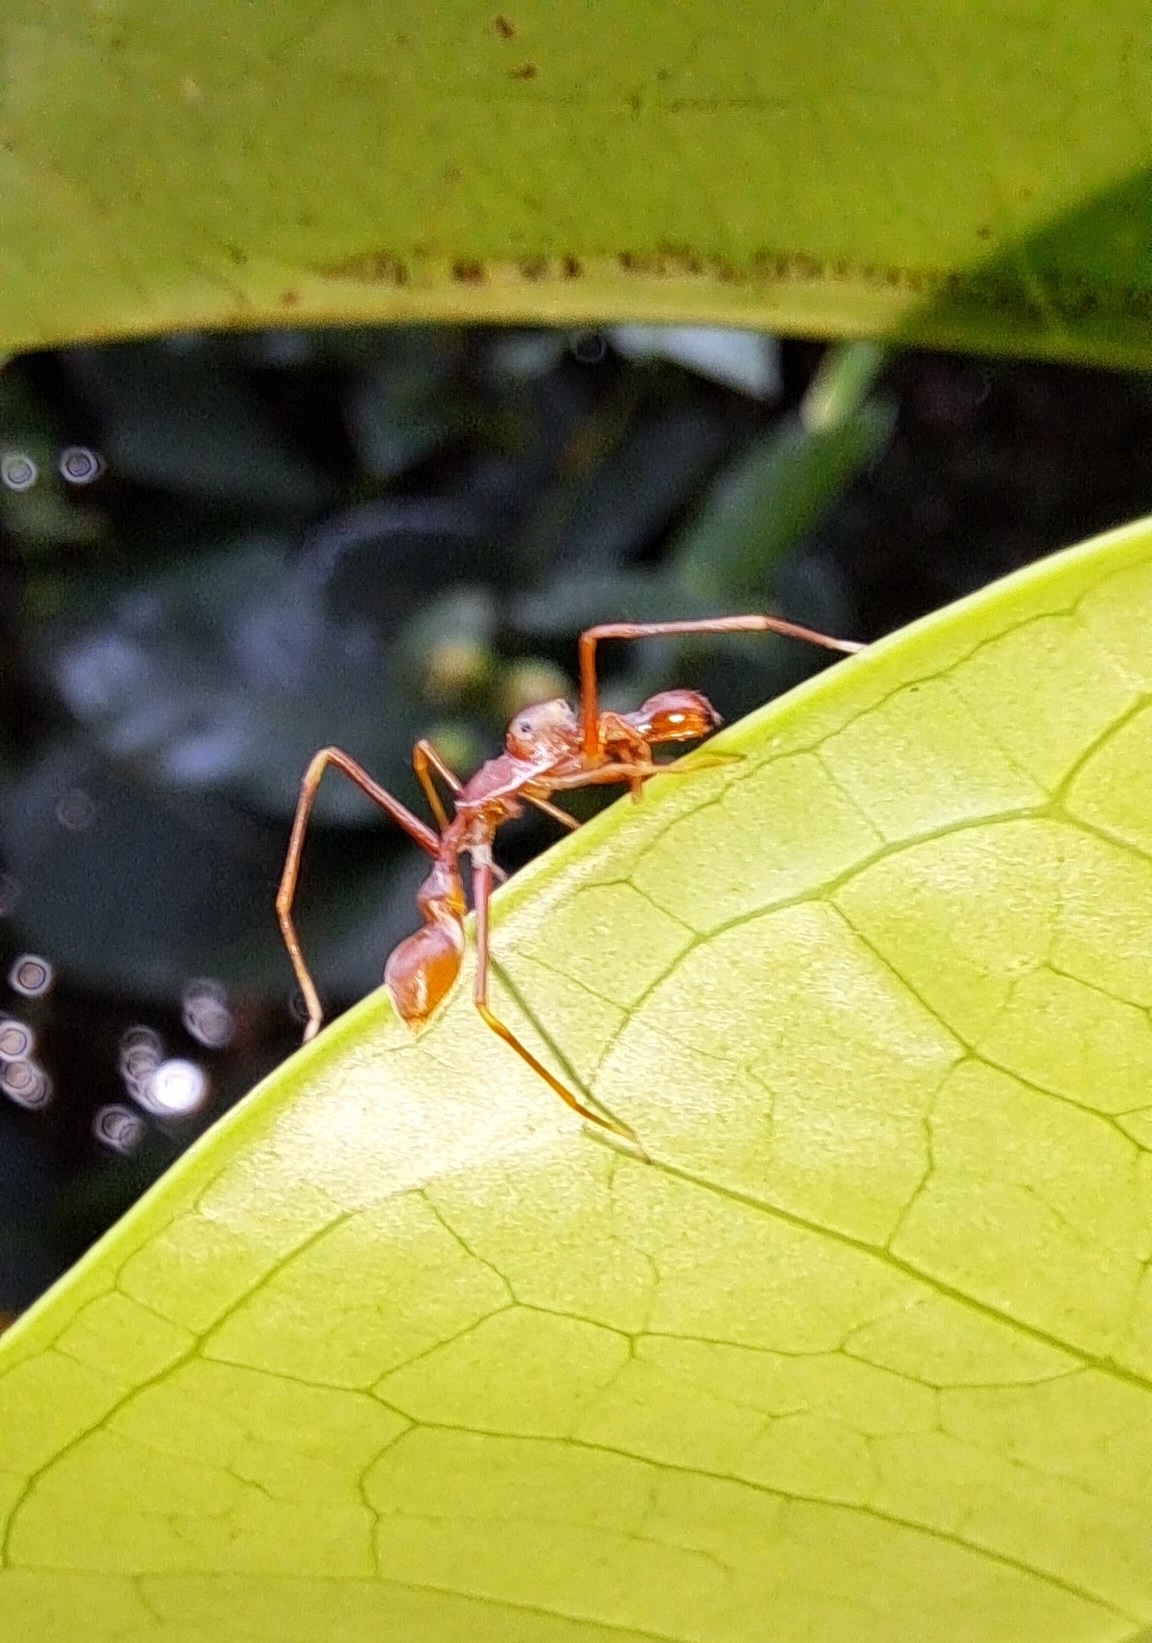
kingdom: Animalia
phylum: Arthropoda
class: Arachnida
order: Araneae
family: Salticidae
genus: Myrmaplata
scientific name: Myrmaplata plataleoides
